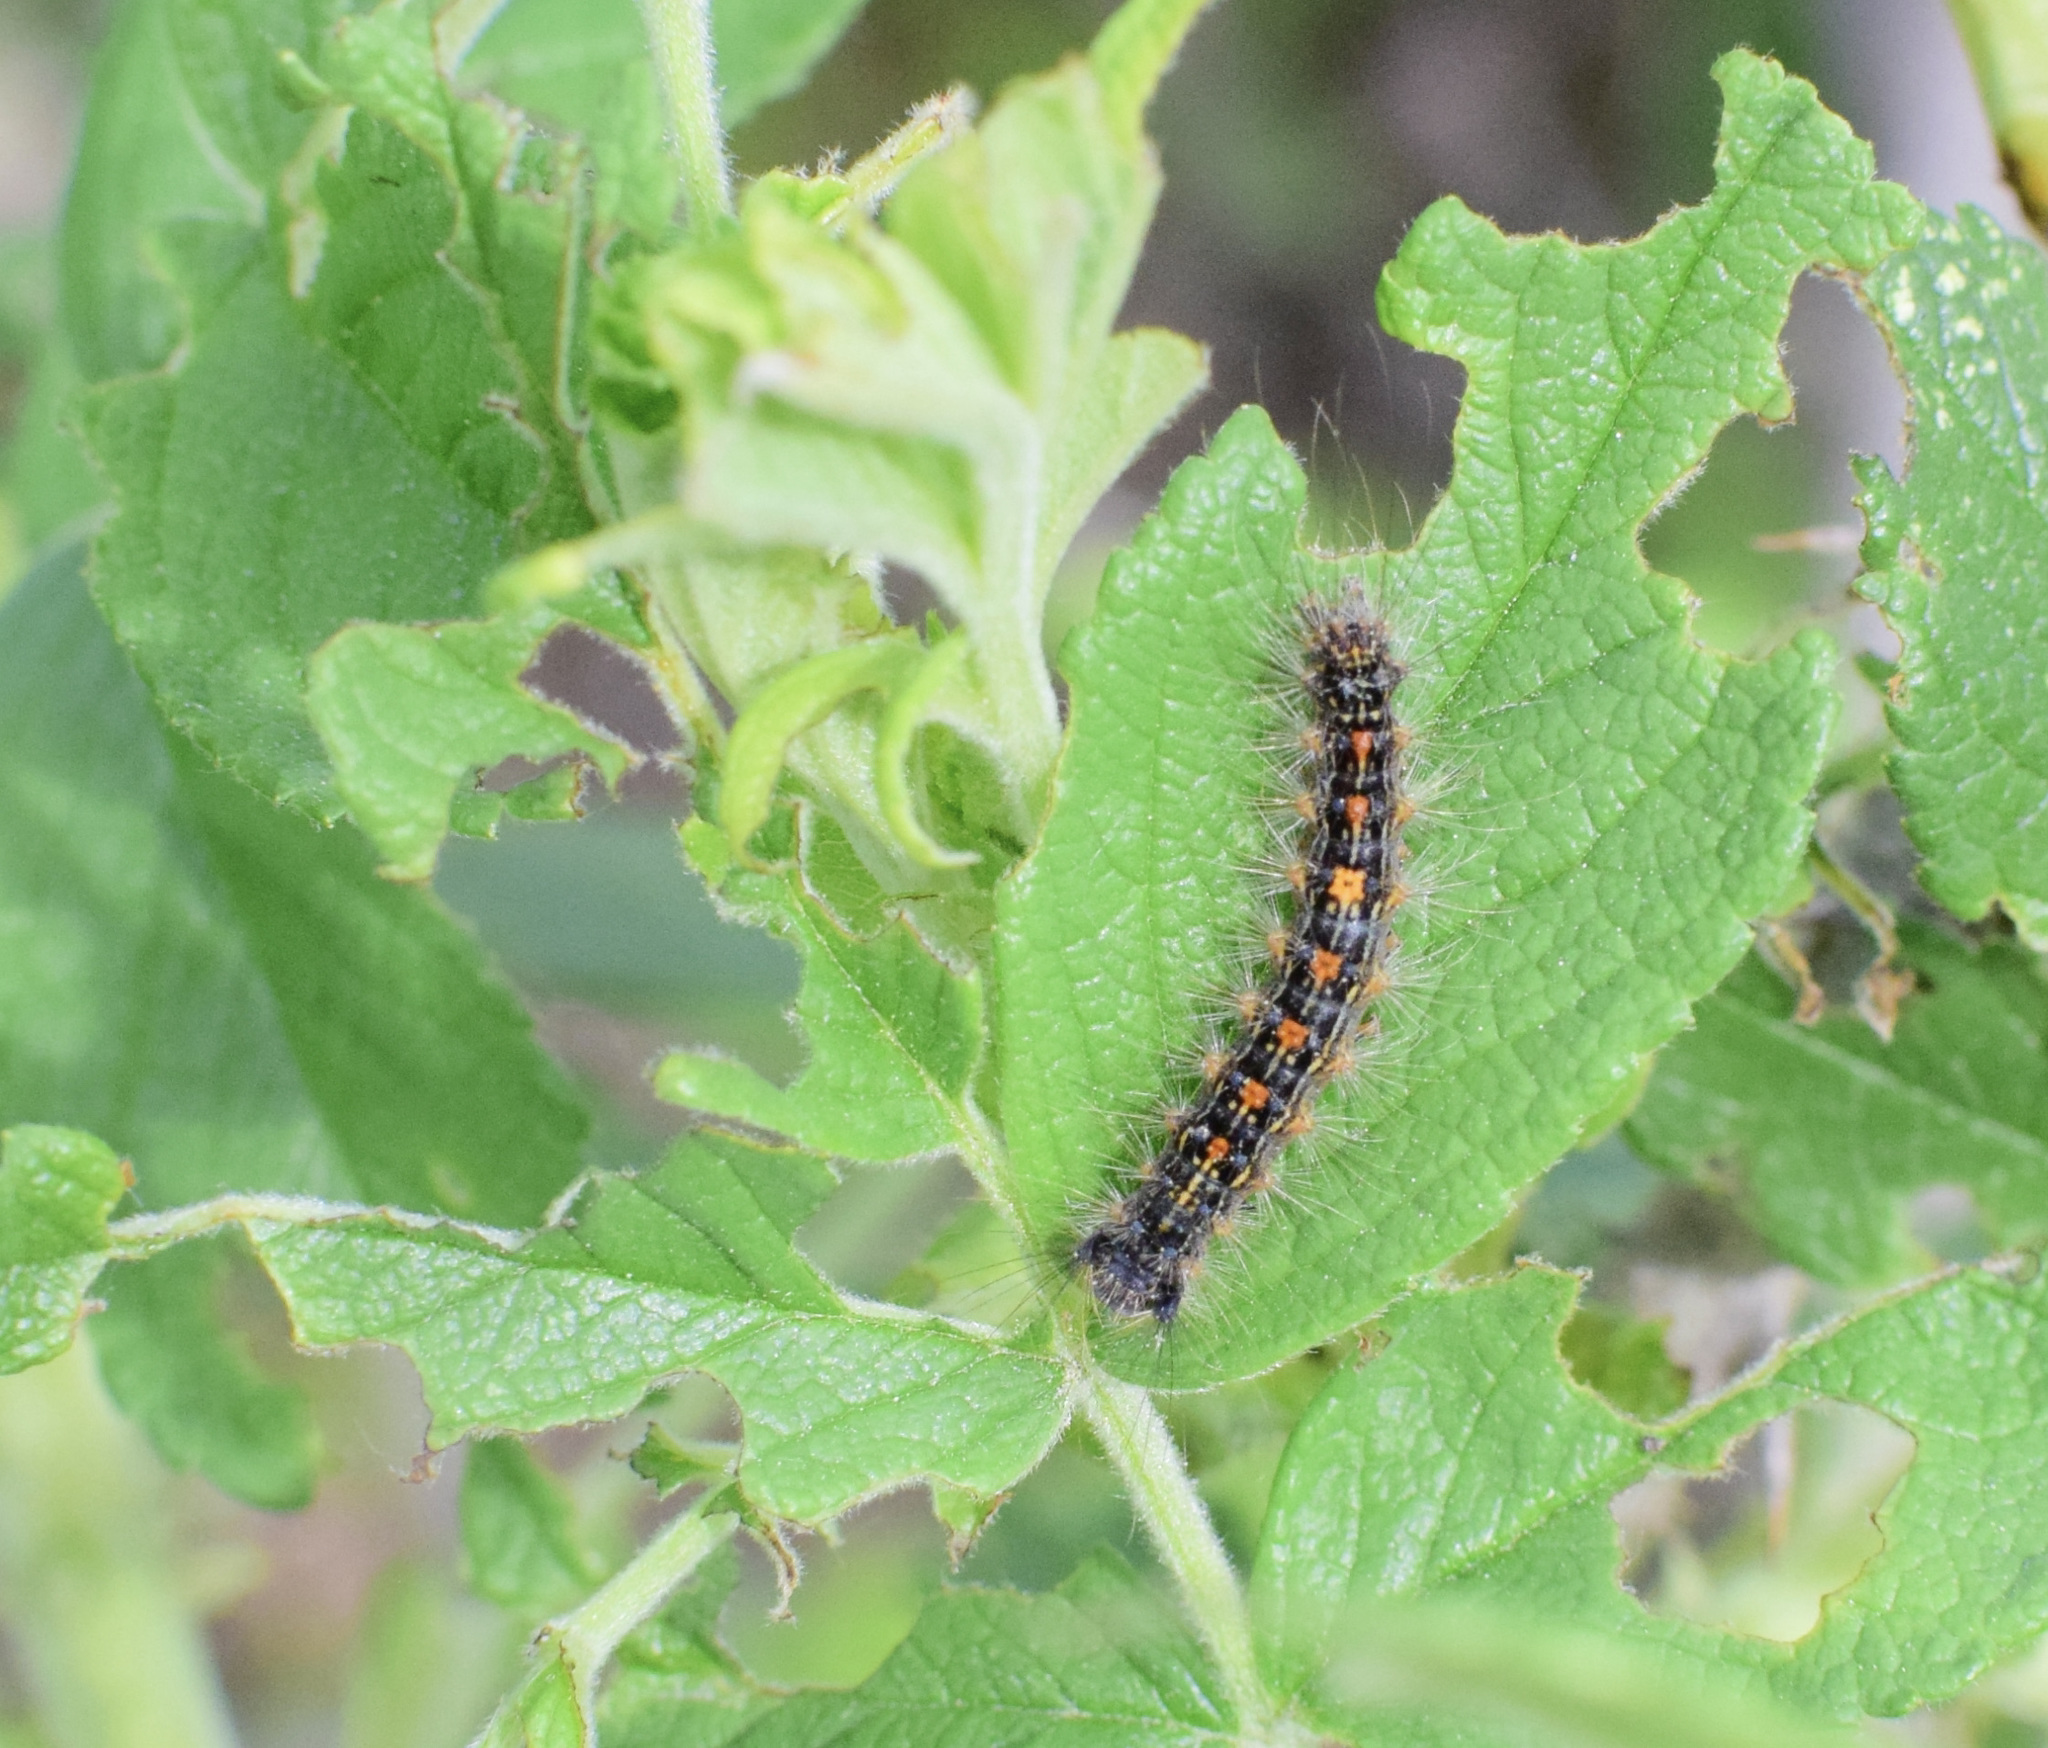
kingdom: Animalia
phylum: Arthropoda
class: Insecta
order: Lepidoptera
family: Erebidae
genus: Lymantria
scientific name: Lymantria dispar
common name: Gypsy moth
